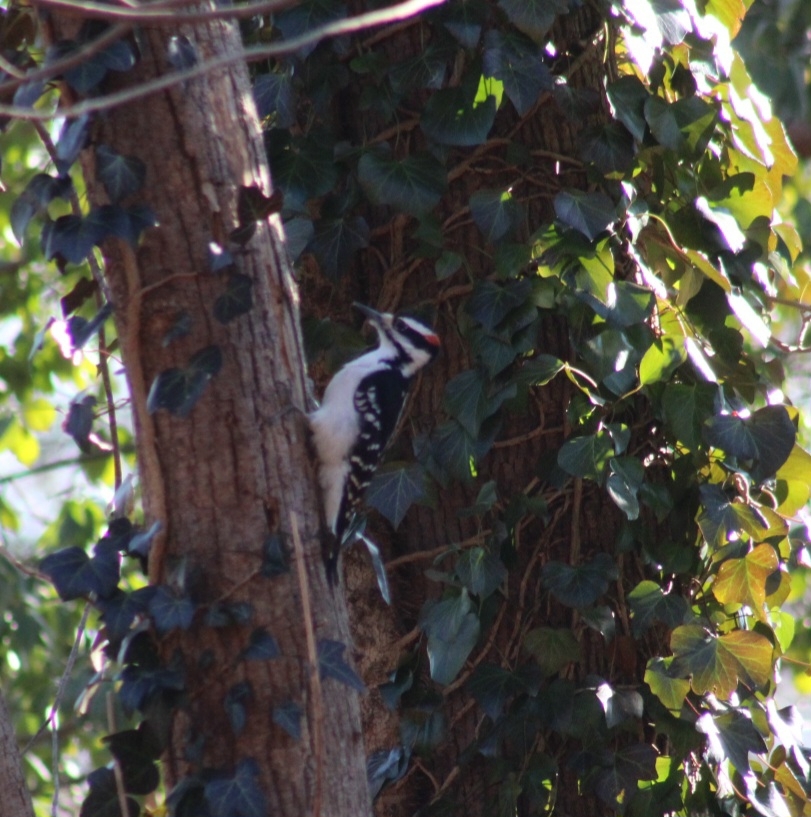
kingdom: Animalia
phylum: Chordata
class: Aves
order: Piciformes
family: Picidae
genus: Leuconotopicus
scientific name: Leuconotopicus villosus
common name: Hairy woodpecker
